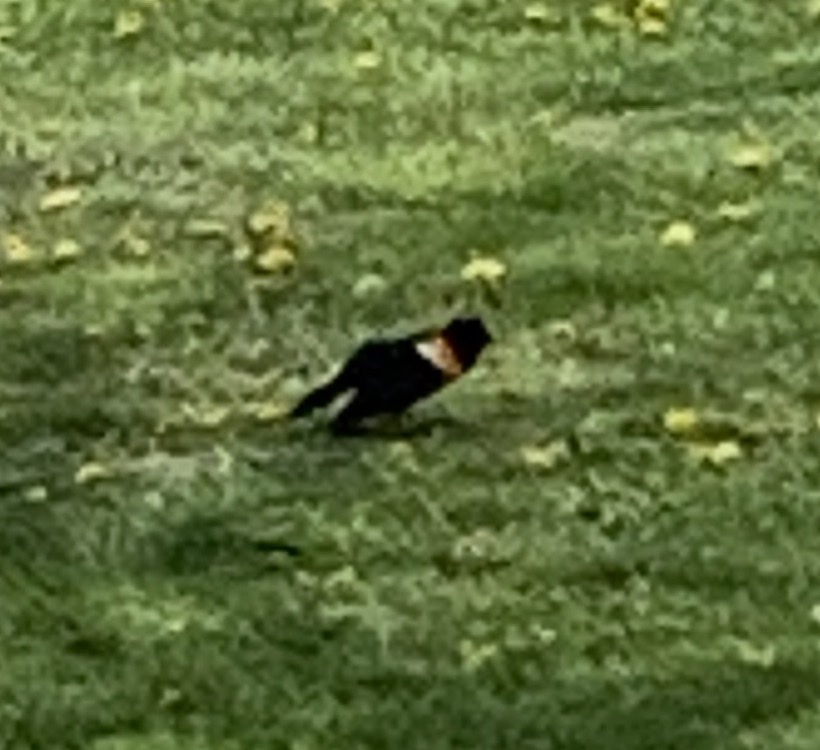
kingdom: Animalia
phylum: Chordata
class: Aves
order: Passeriformes
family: Icteridae
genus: Agelaius
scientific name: Agelaius phoeniceus
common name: Red-winged blackbird
